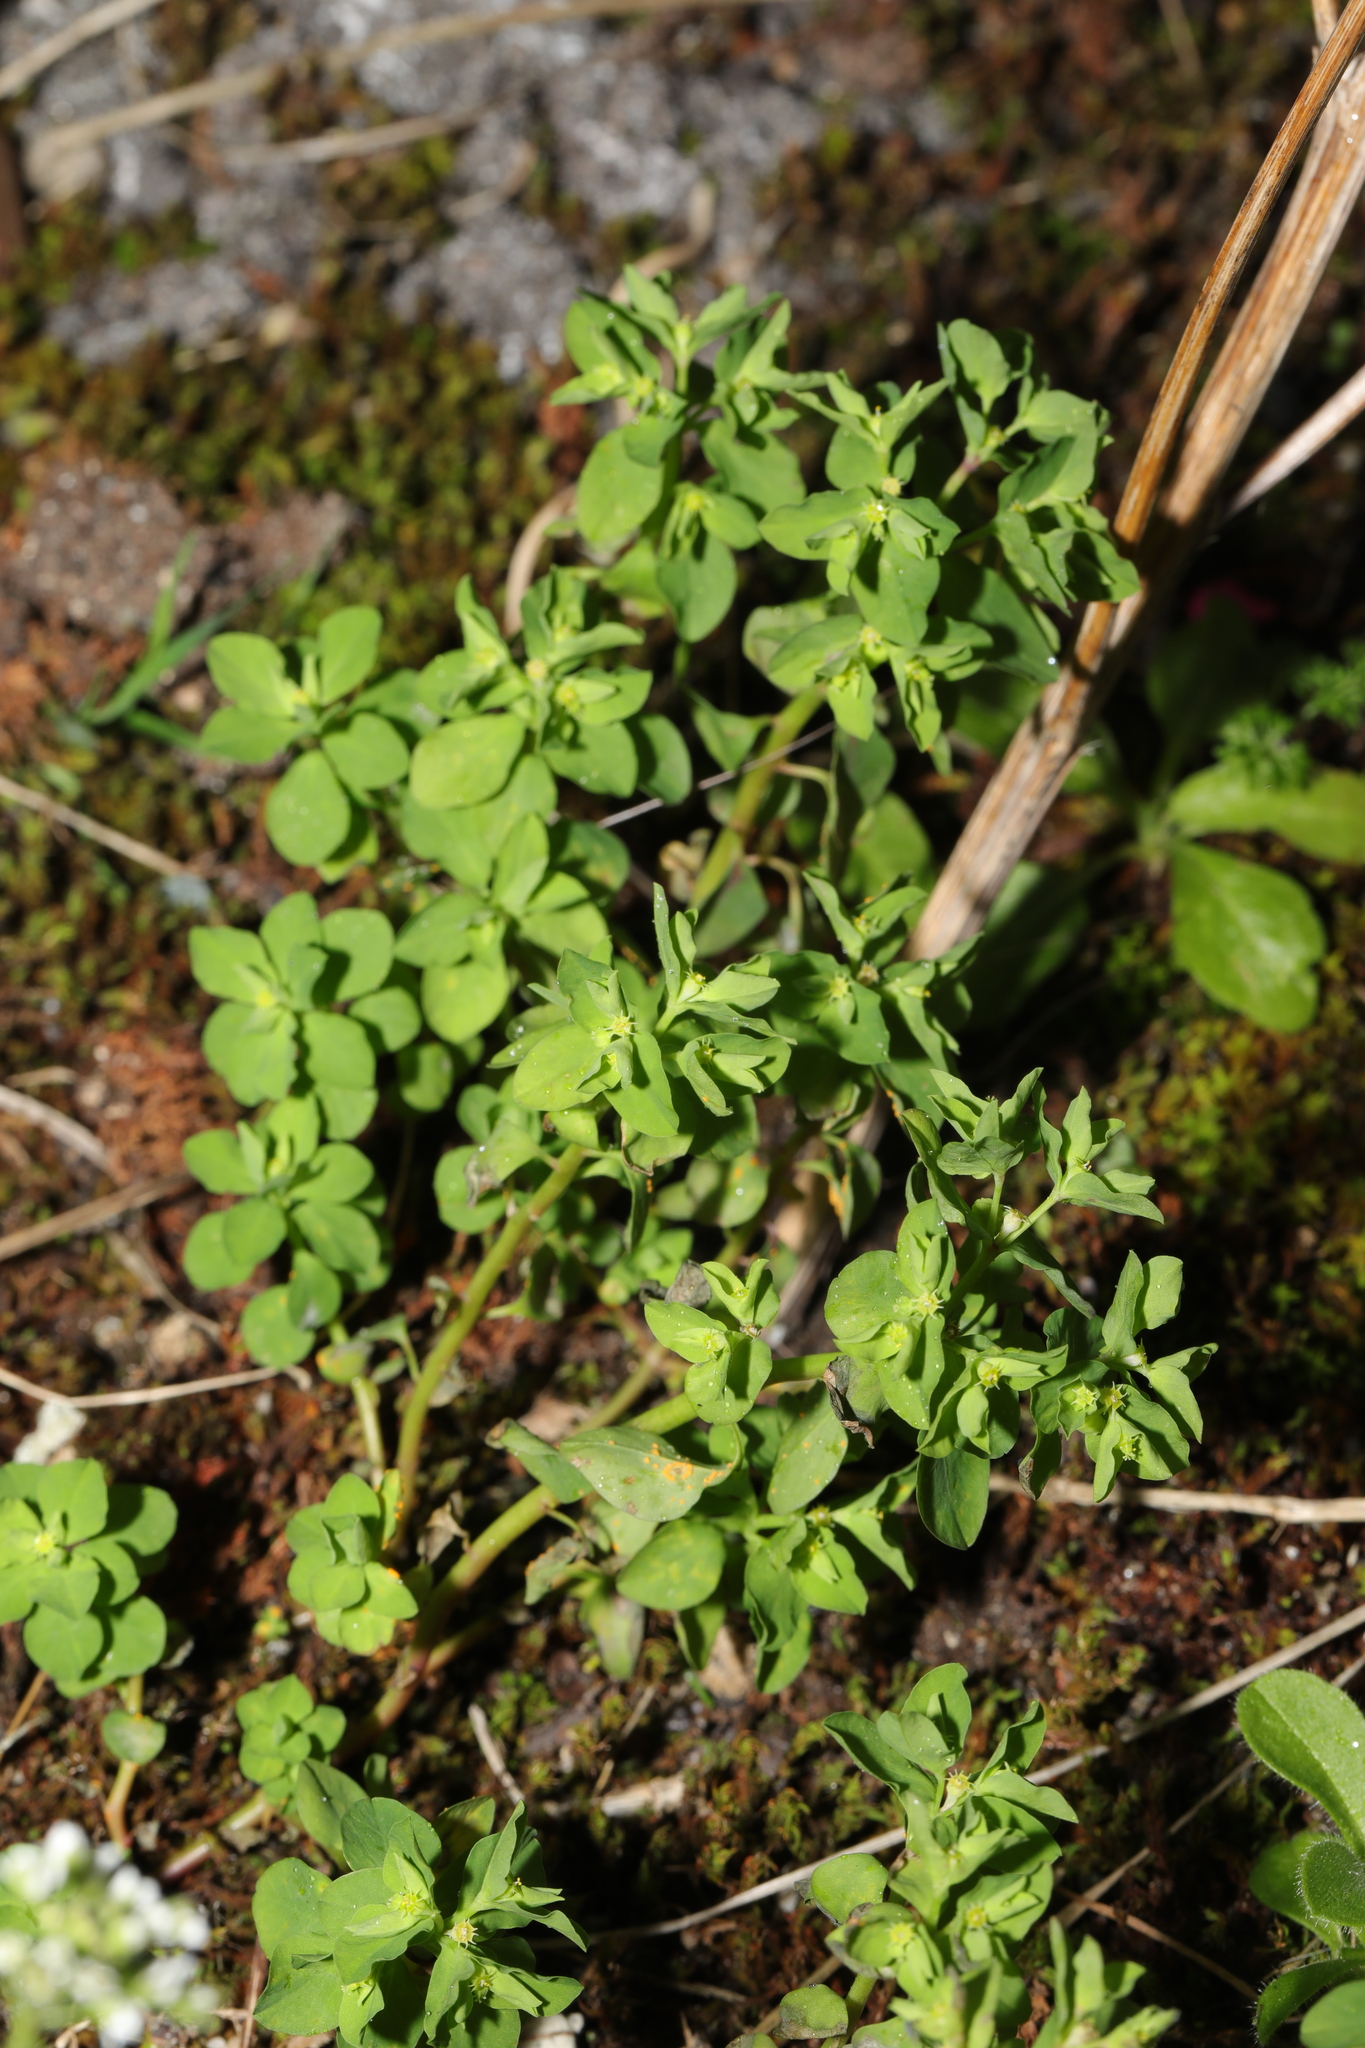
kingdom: Plantae
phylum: Tracheophyta
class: Magnoliopsida
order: Malpighiales
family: Euphorbiaceae
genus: Euphorbia
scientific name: Euphorbia peplus
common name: Petty spurge
